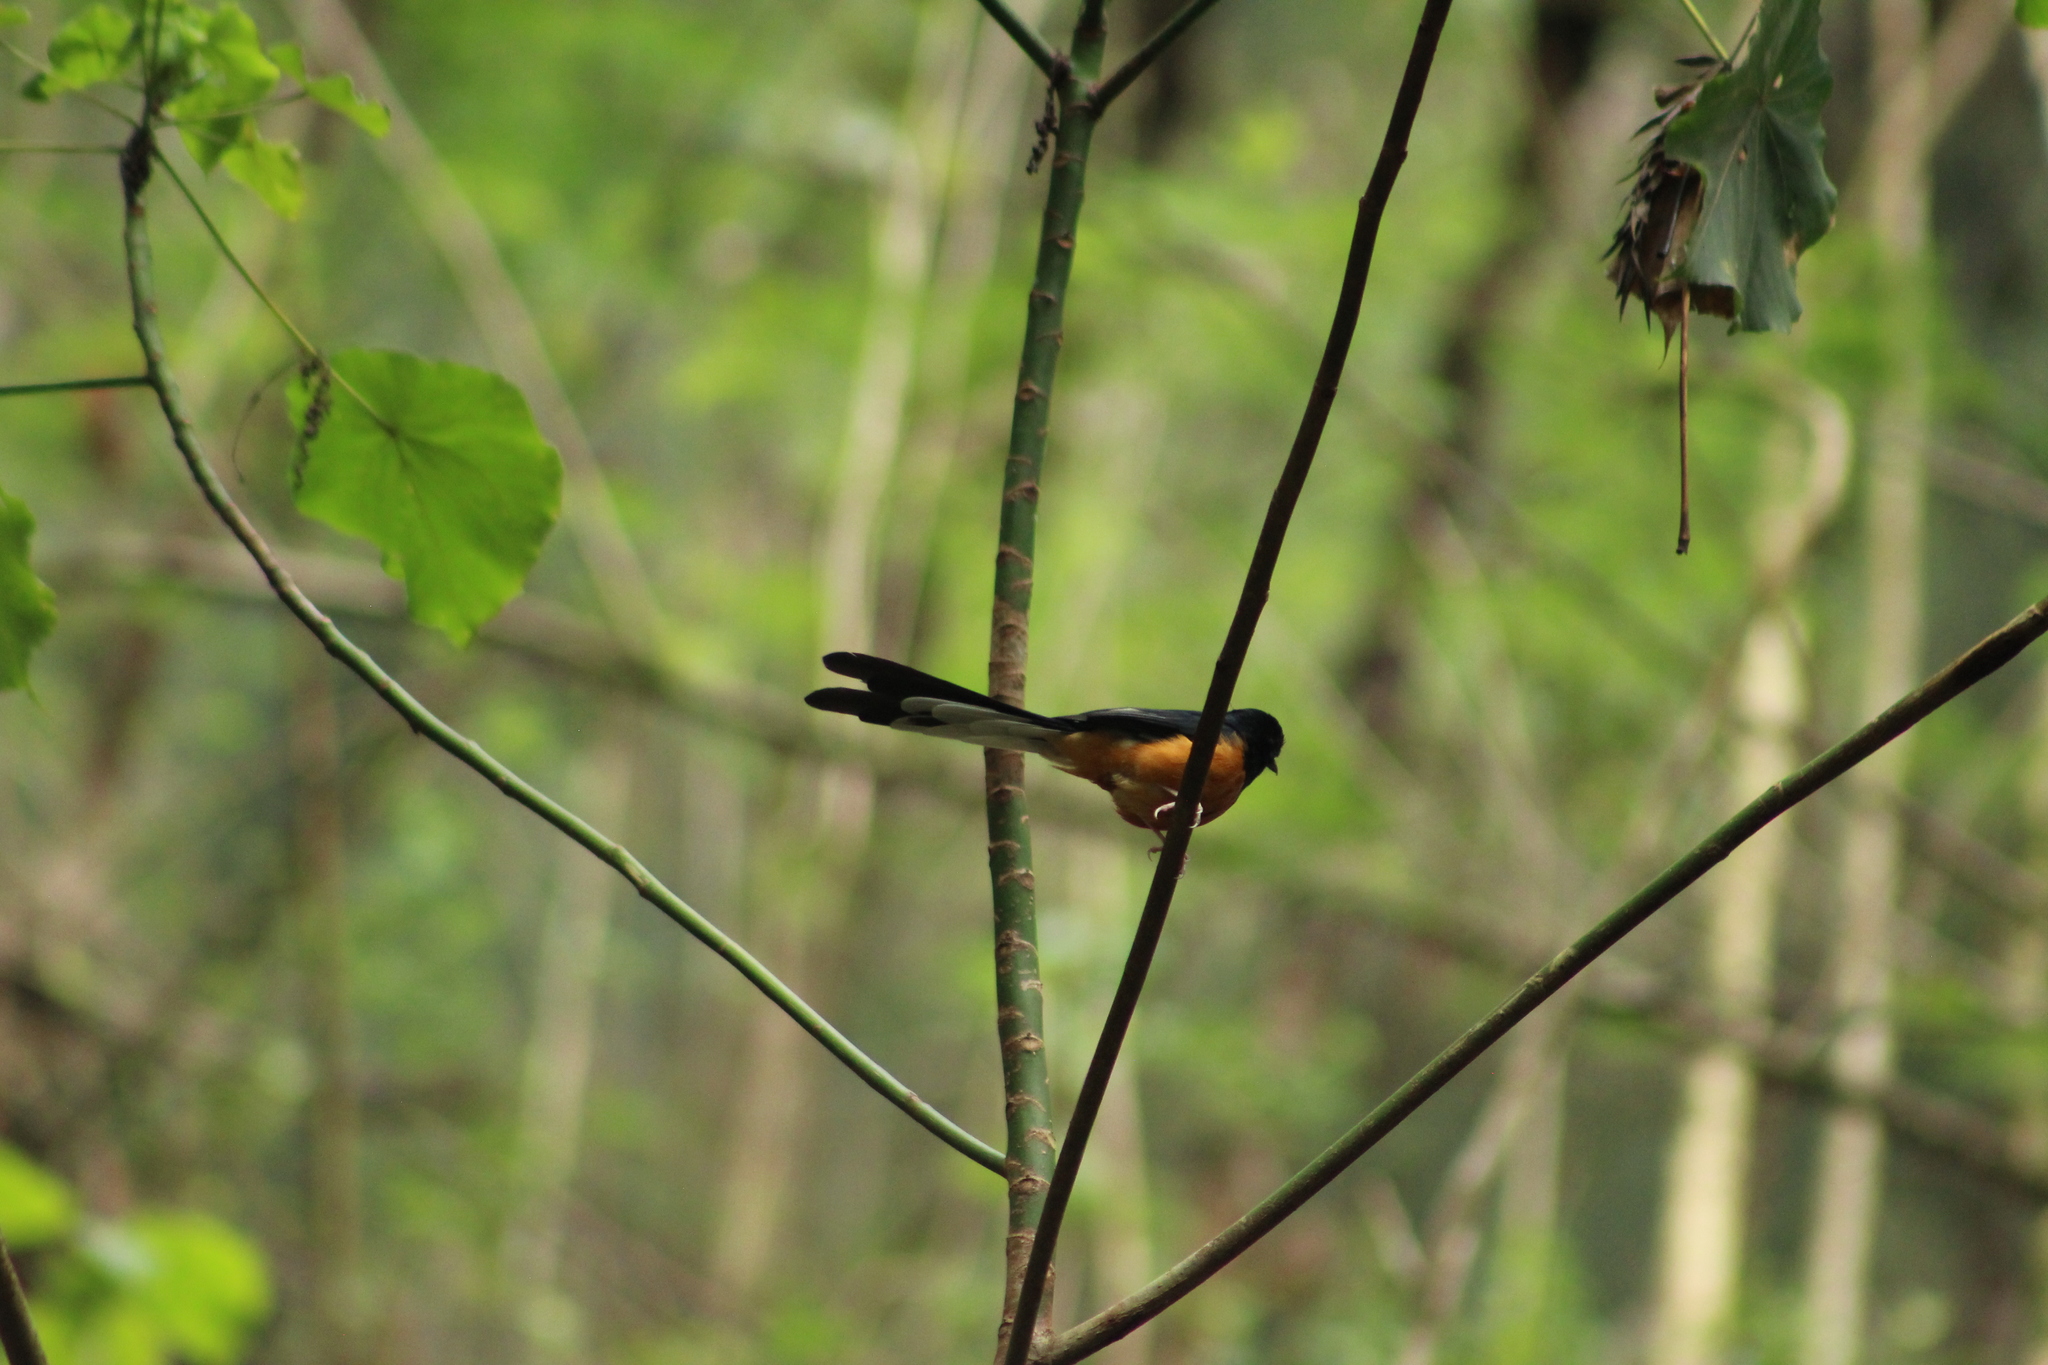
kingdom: Animalia
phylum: Chordata
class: Aves
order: Passeriformes
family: Muscicapidae
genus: Copsychus
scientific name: Copsychus malabaricus
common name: White-rumped shama
